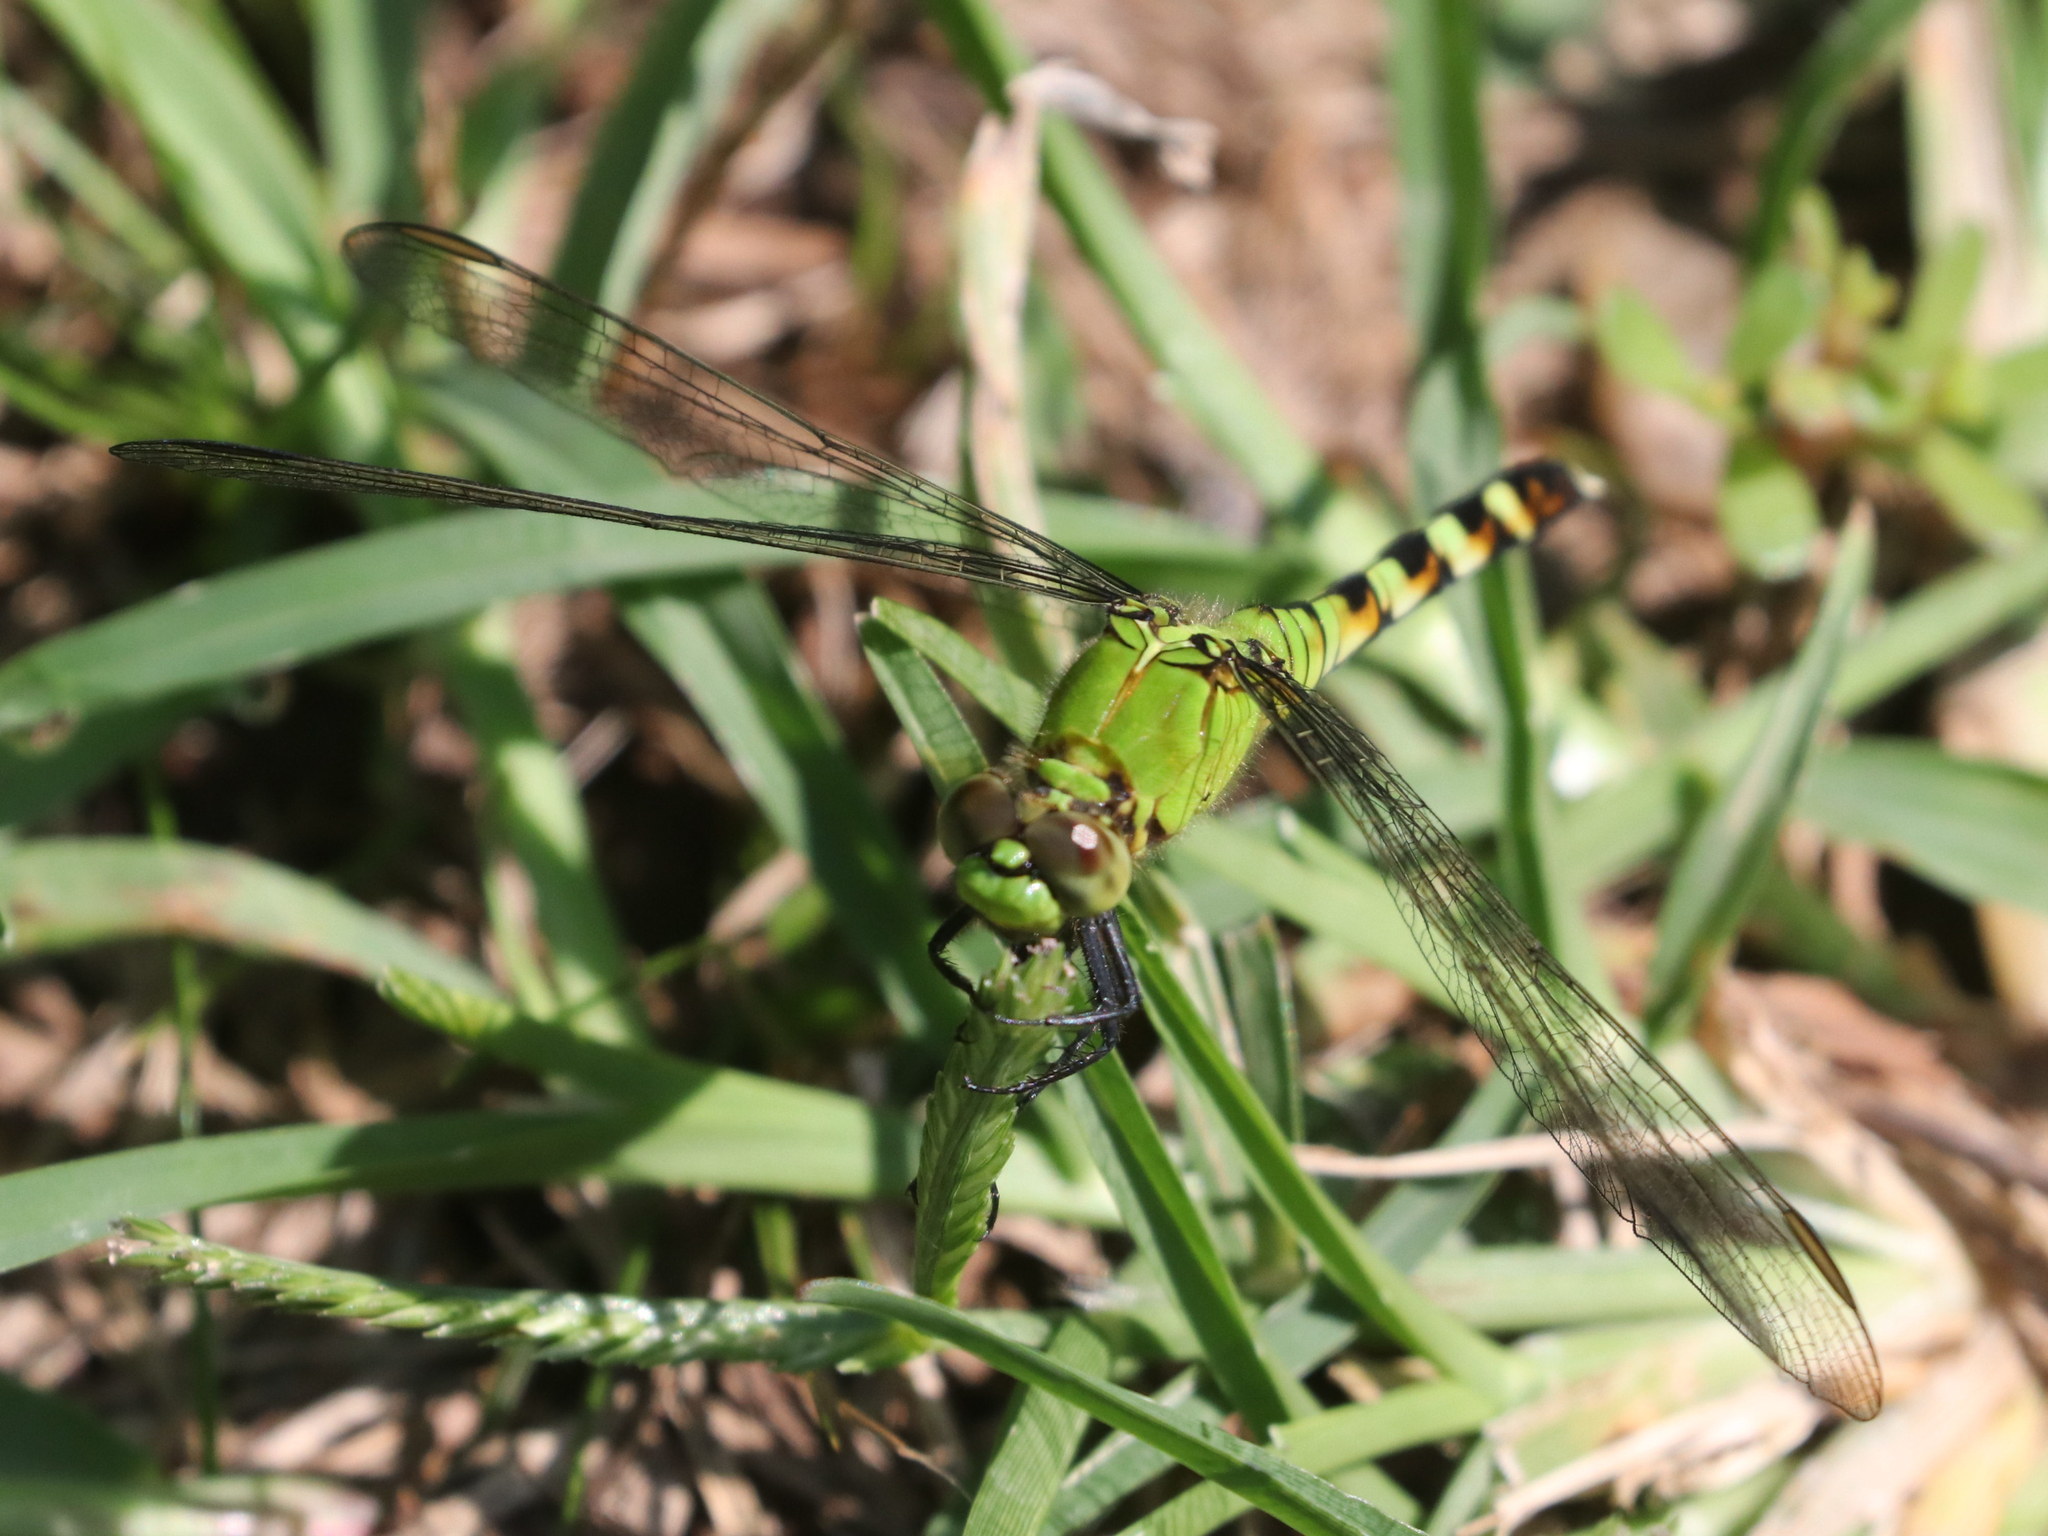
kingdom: Animalia
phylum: Arthropoda
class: Insecta
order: Odonata
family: Libellulidae
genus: Erythemis
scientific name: Erythemis simplicicollis
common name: Eastern pondhawk
